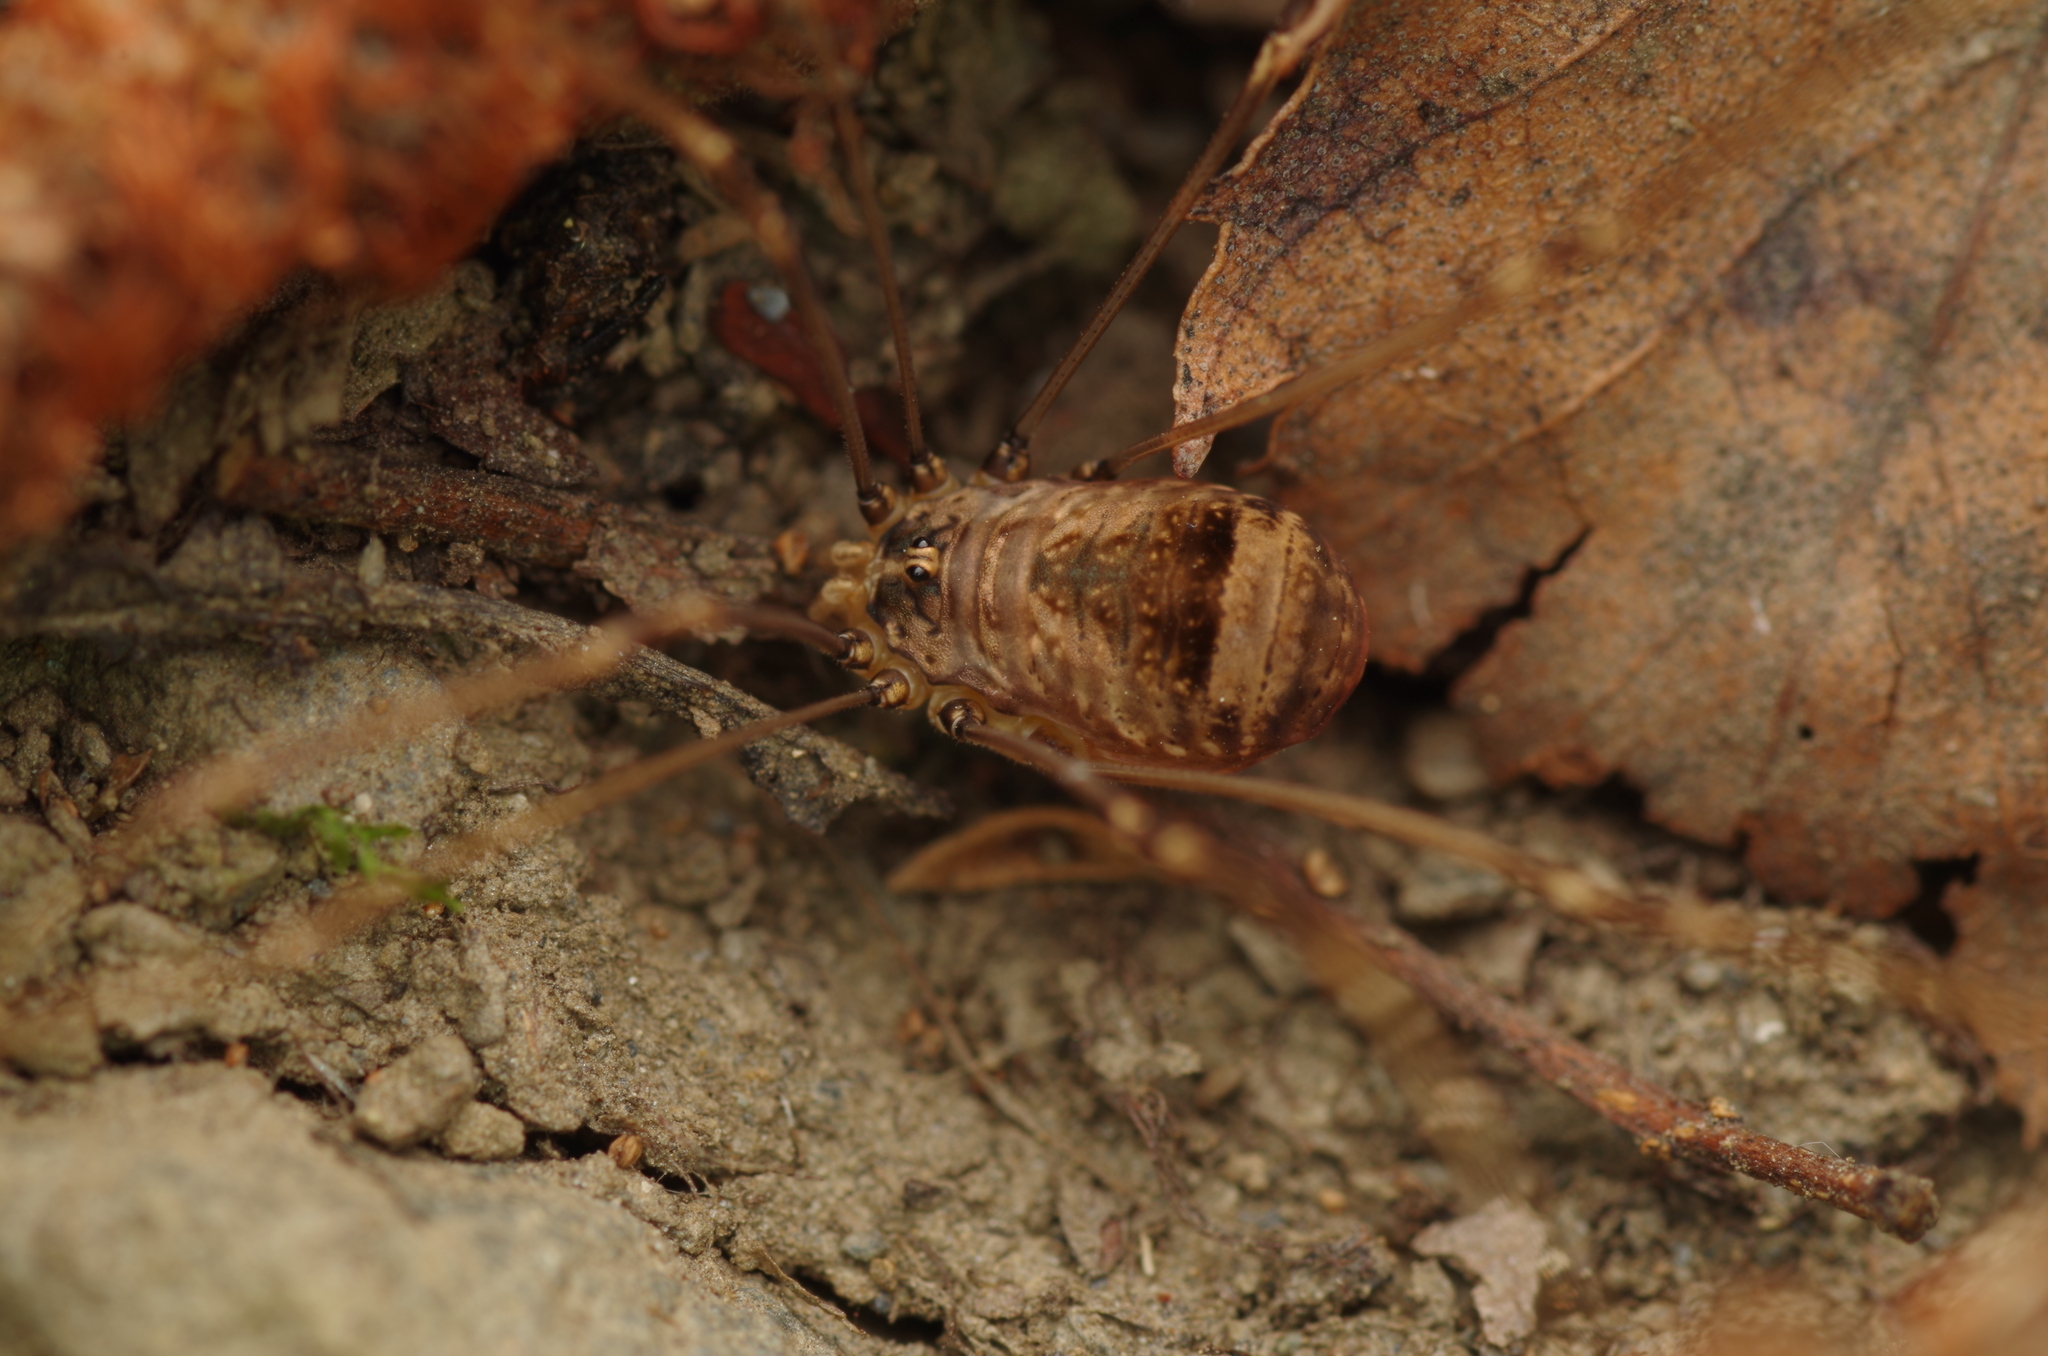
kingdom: Animalia
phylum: Arthropoda
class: Arachnida
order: Opiliones
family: Sclerosomatidae
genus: Leiobunum
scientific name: Leiobunum blackwalli
